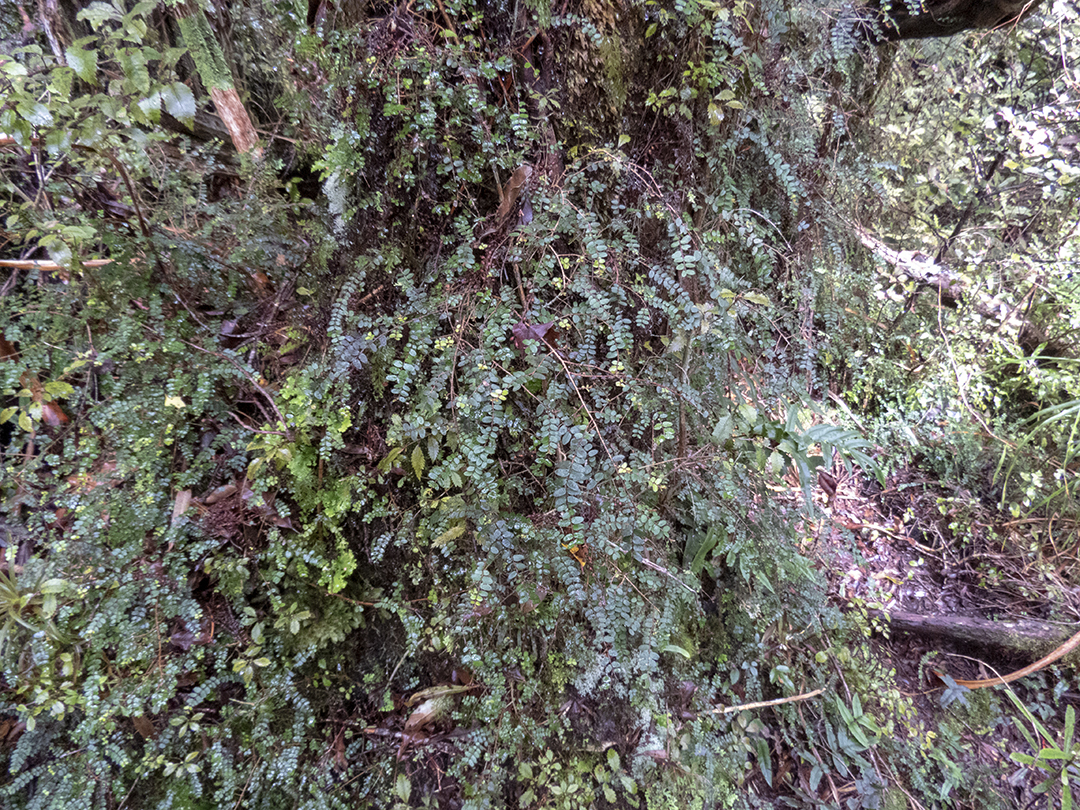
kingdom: Plantae
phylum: Tracheophyta
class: Magnoliopsida
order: Myrtales
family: Myrtaceae
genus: Metrosideros
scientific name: Metrosideros diffusa
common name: Small ratavine
